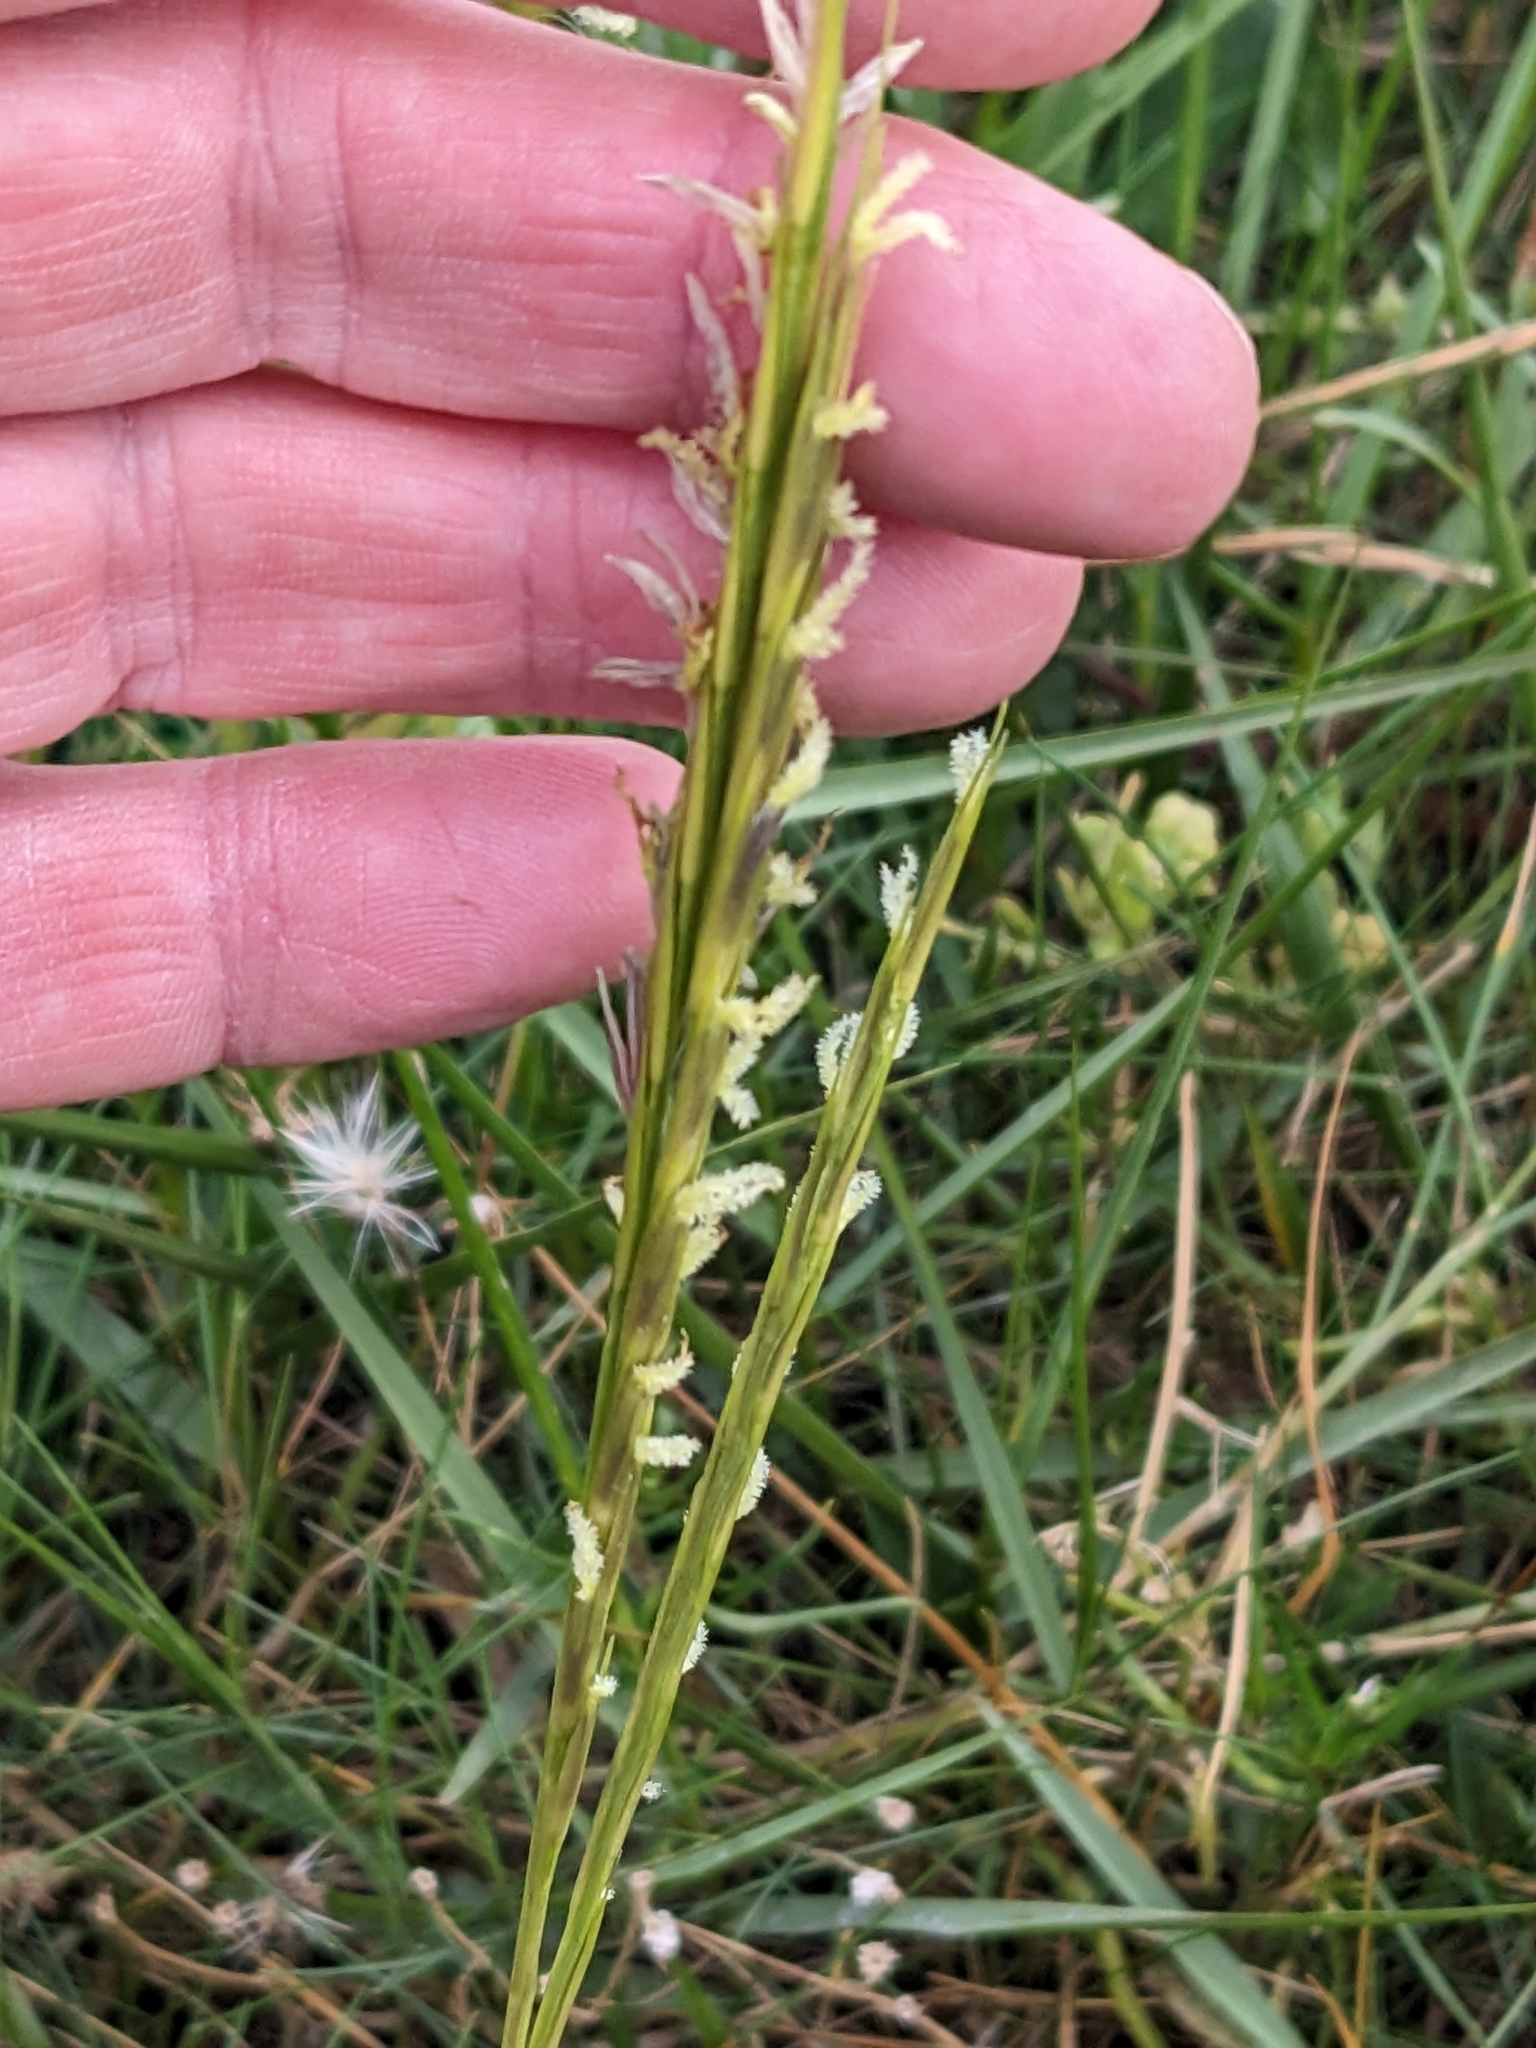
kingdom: Plantae
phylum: Tracheophyta
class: Liliopsida
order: Poales
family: Poaceae
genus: Sporobolus
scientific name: Sporobolus anglicus
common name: English cordgrass
